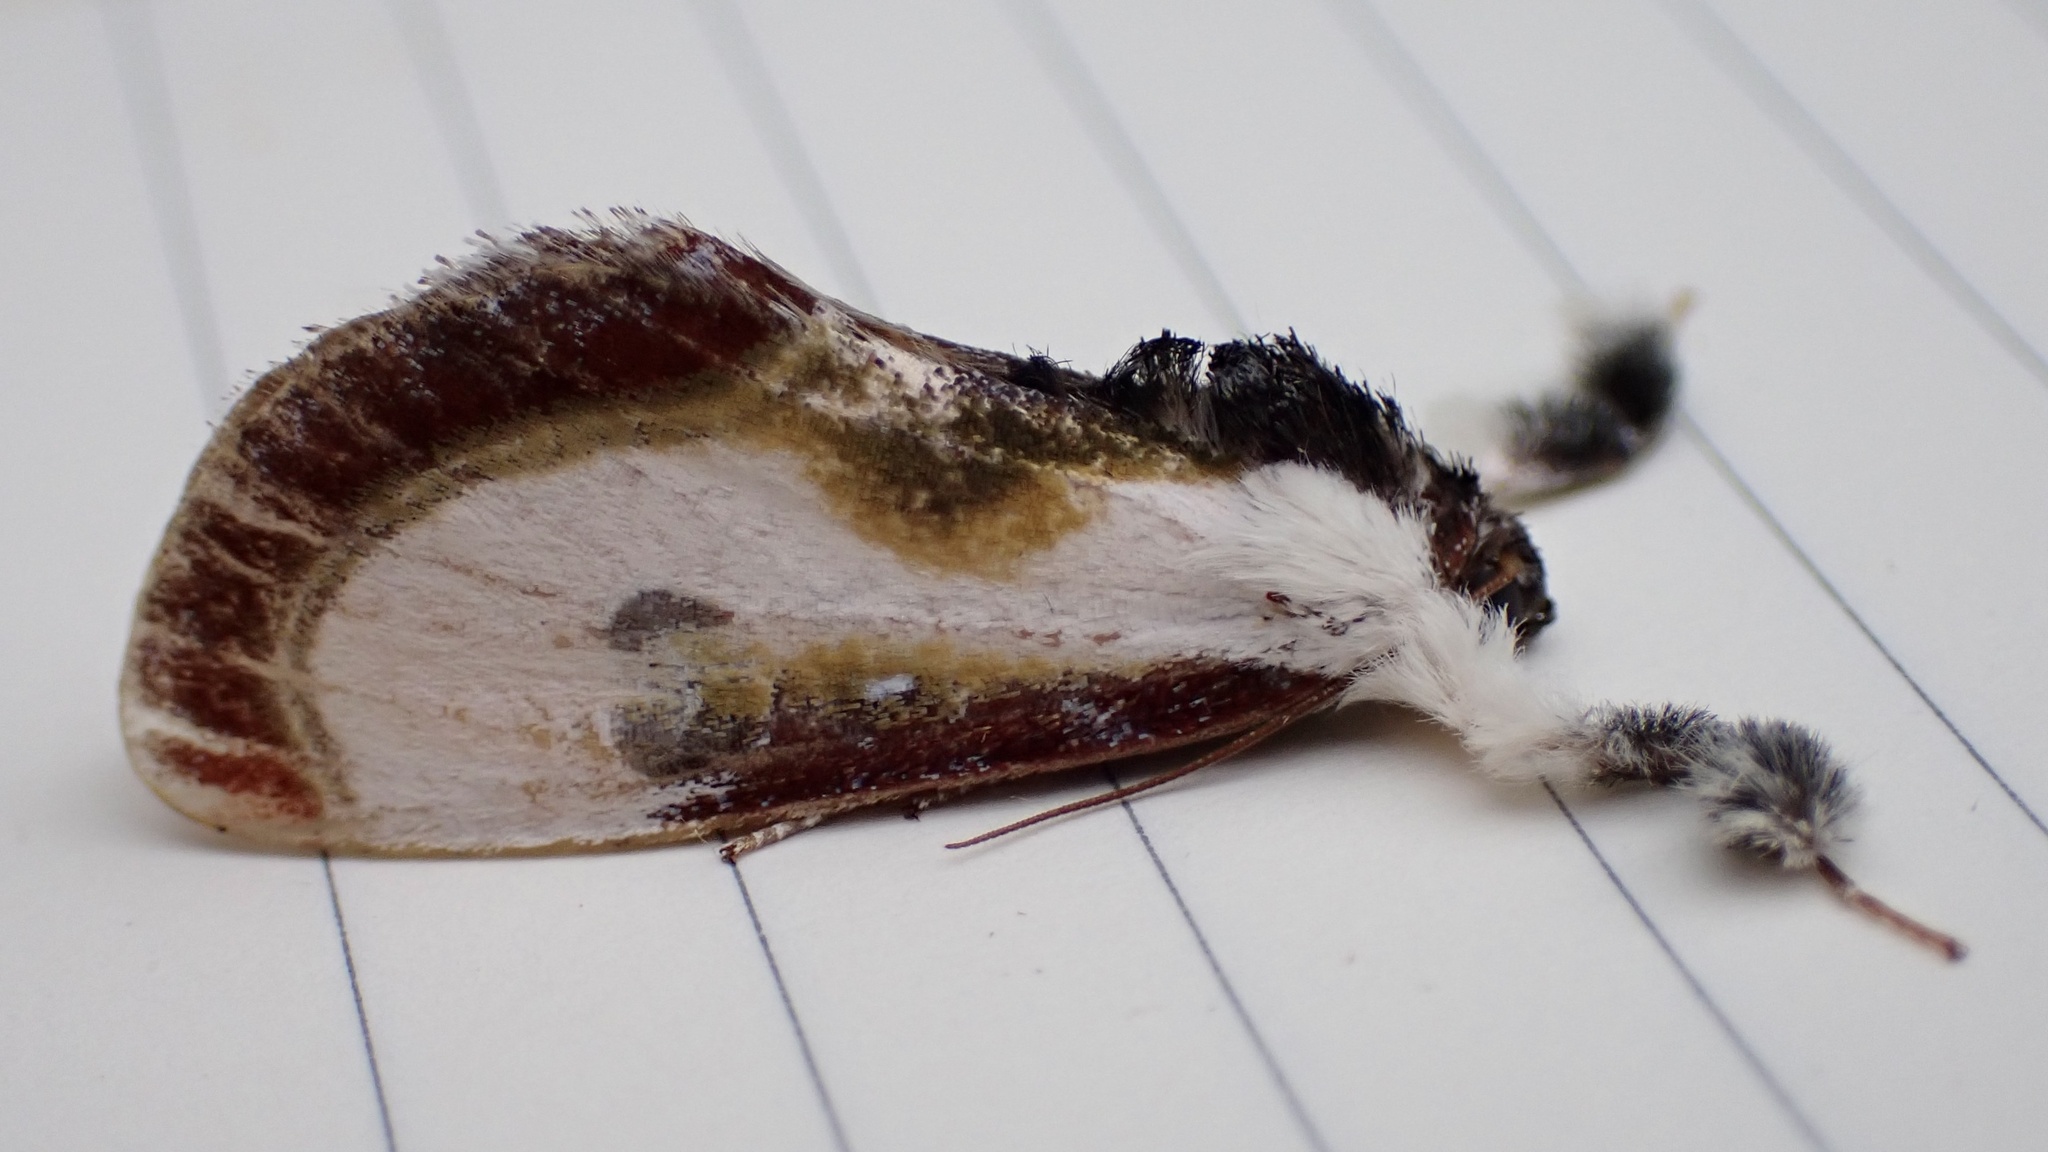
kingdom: Animalia
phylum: Arthropoda
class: Insecta
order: Lepidoptera
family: Noctuidae
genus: Eudryas
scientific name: Eudryas grata
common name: Beautiful wood-nymph
